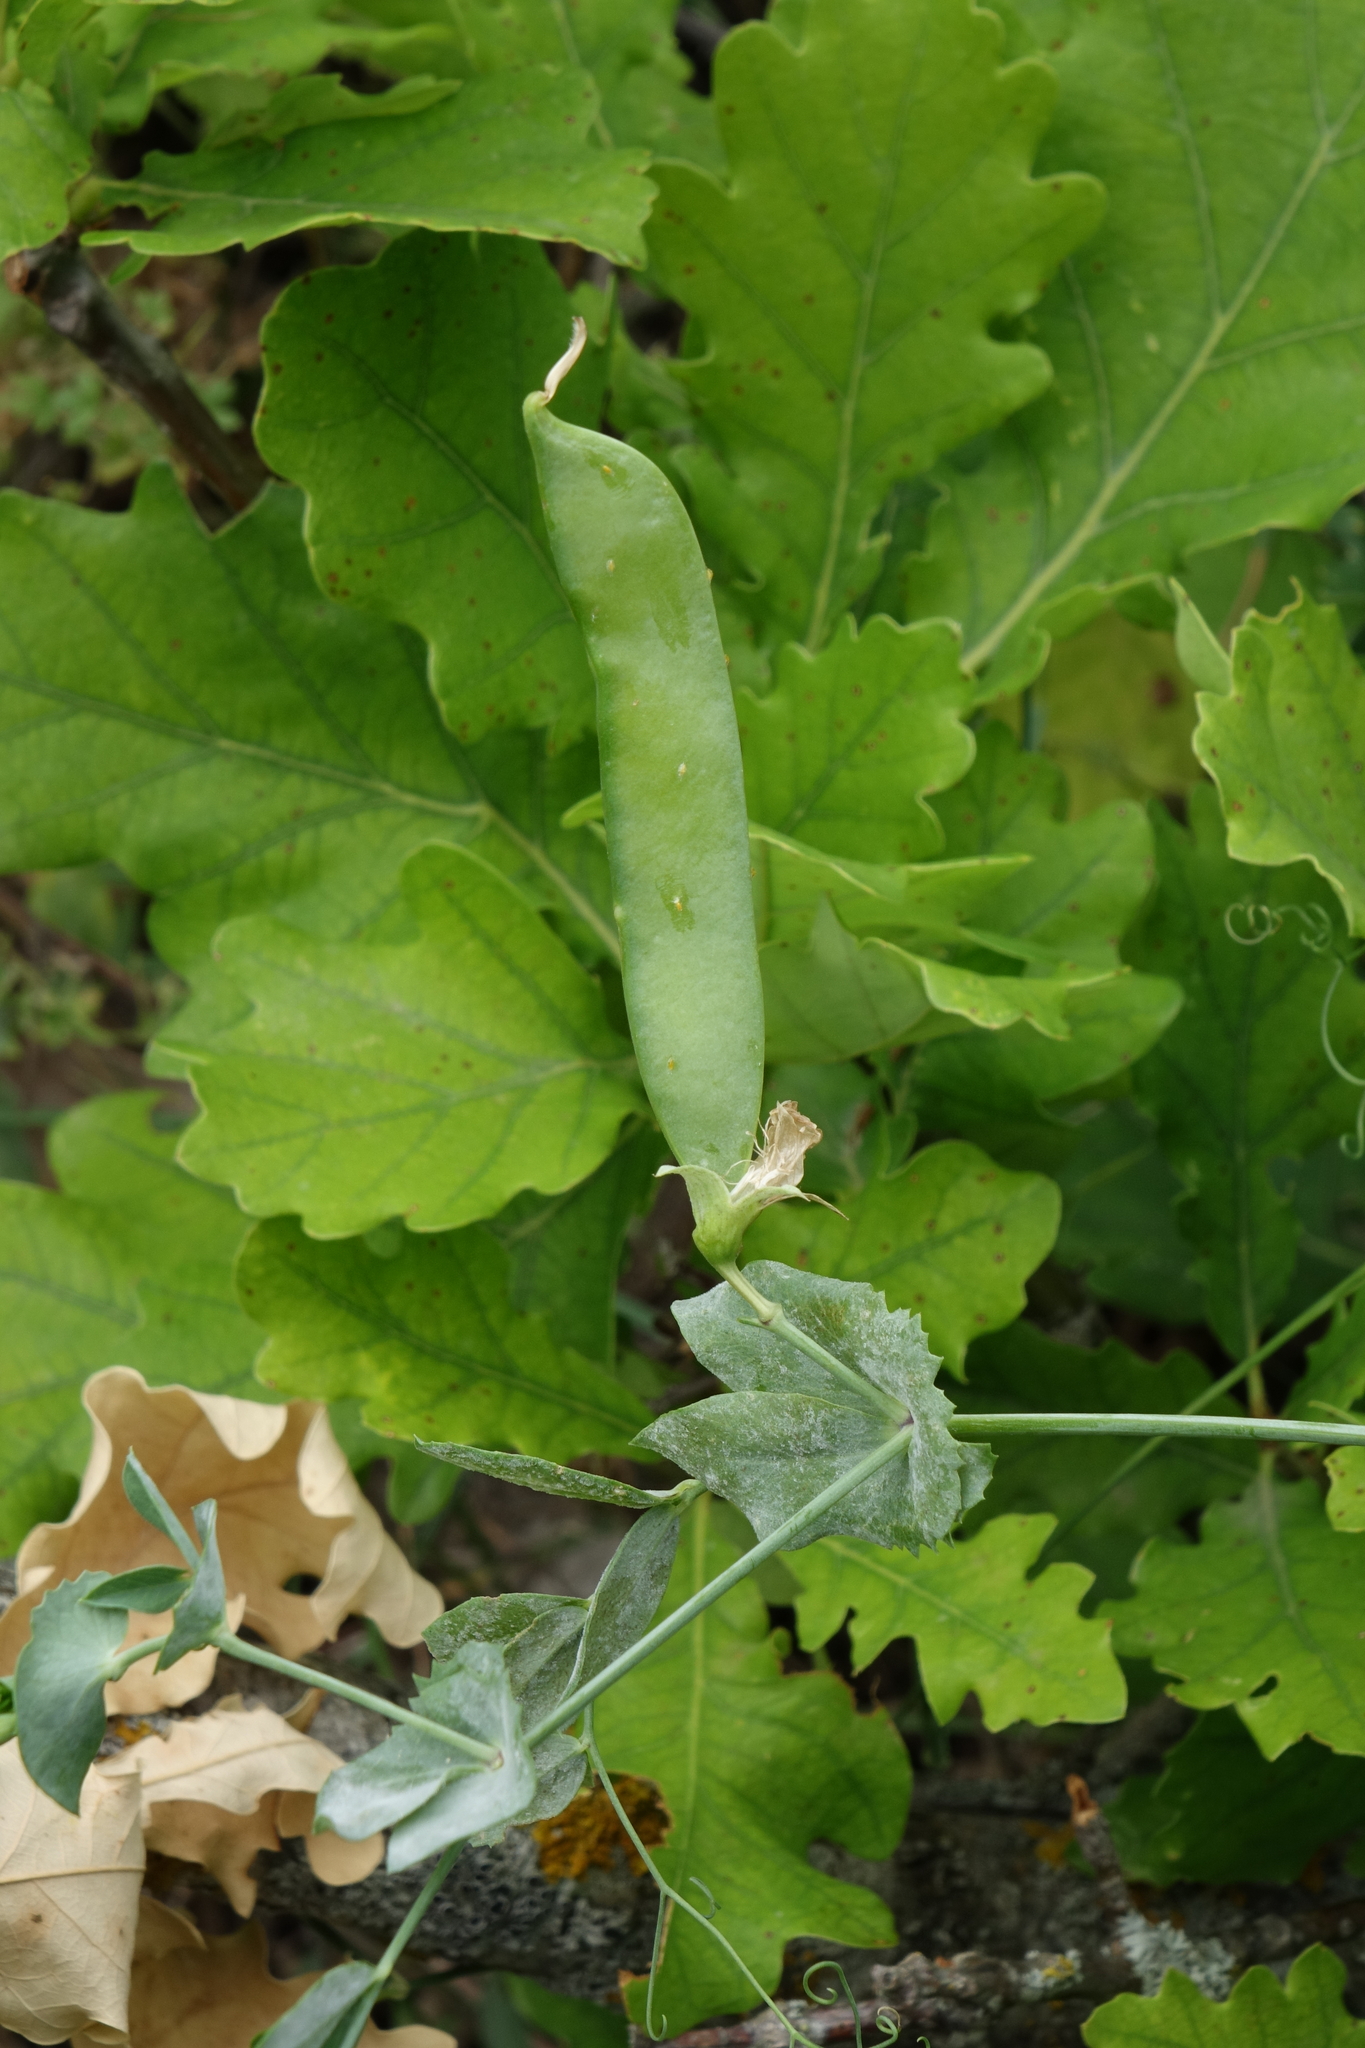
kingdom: Plantae
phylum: Tracheophyta
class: Magnoliopsida
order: Fabales
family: Fabaceae
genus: Lathyrus
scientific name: Lathyrus oleraceus
